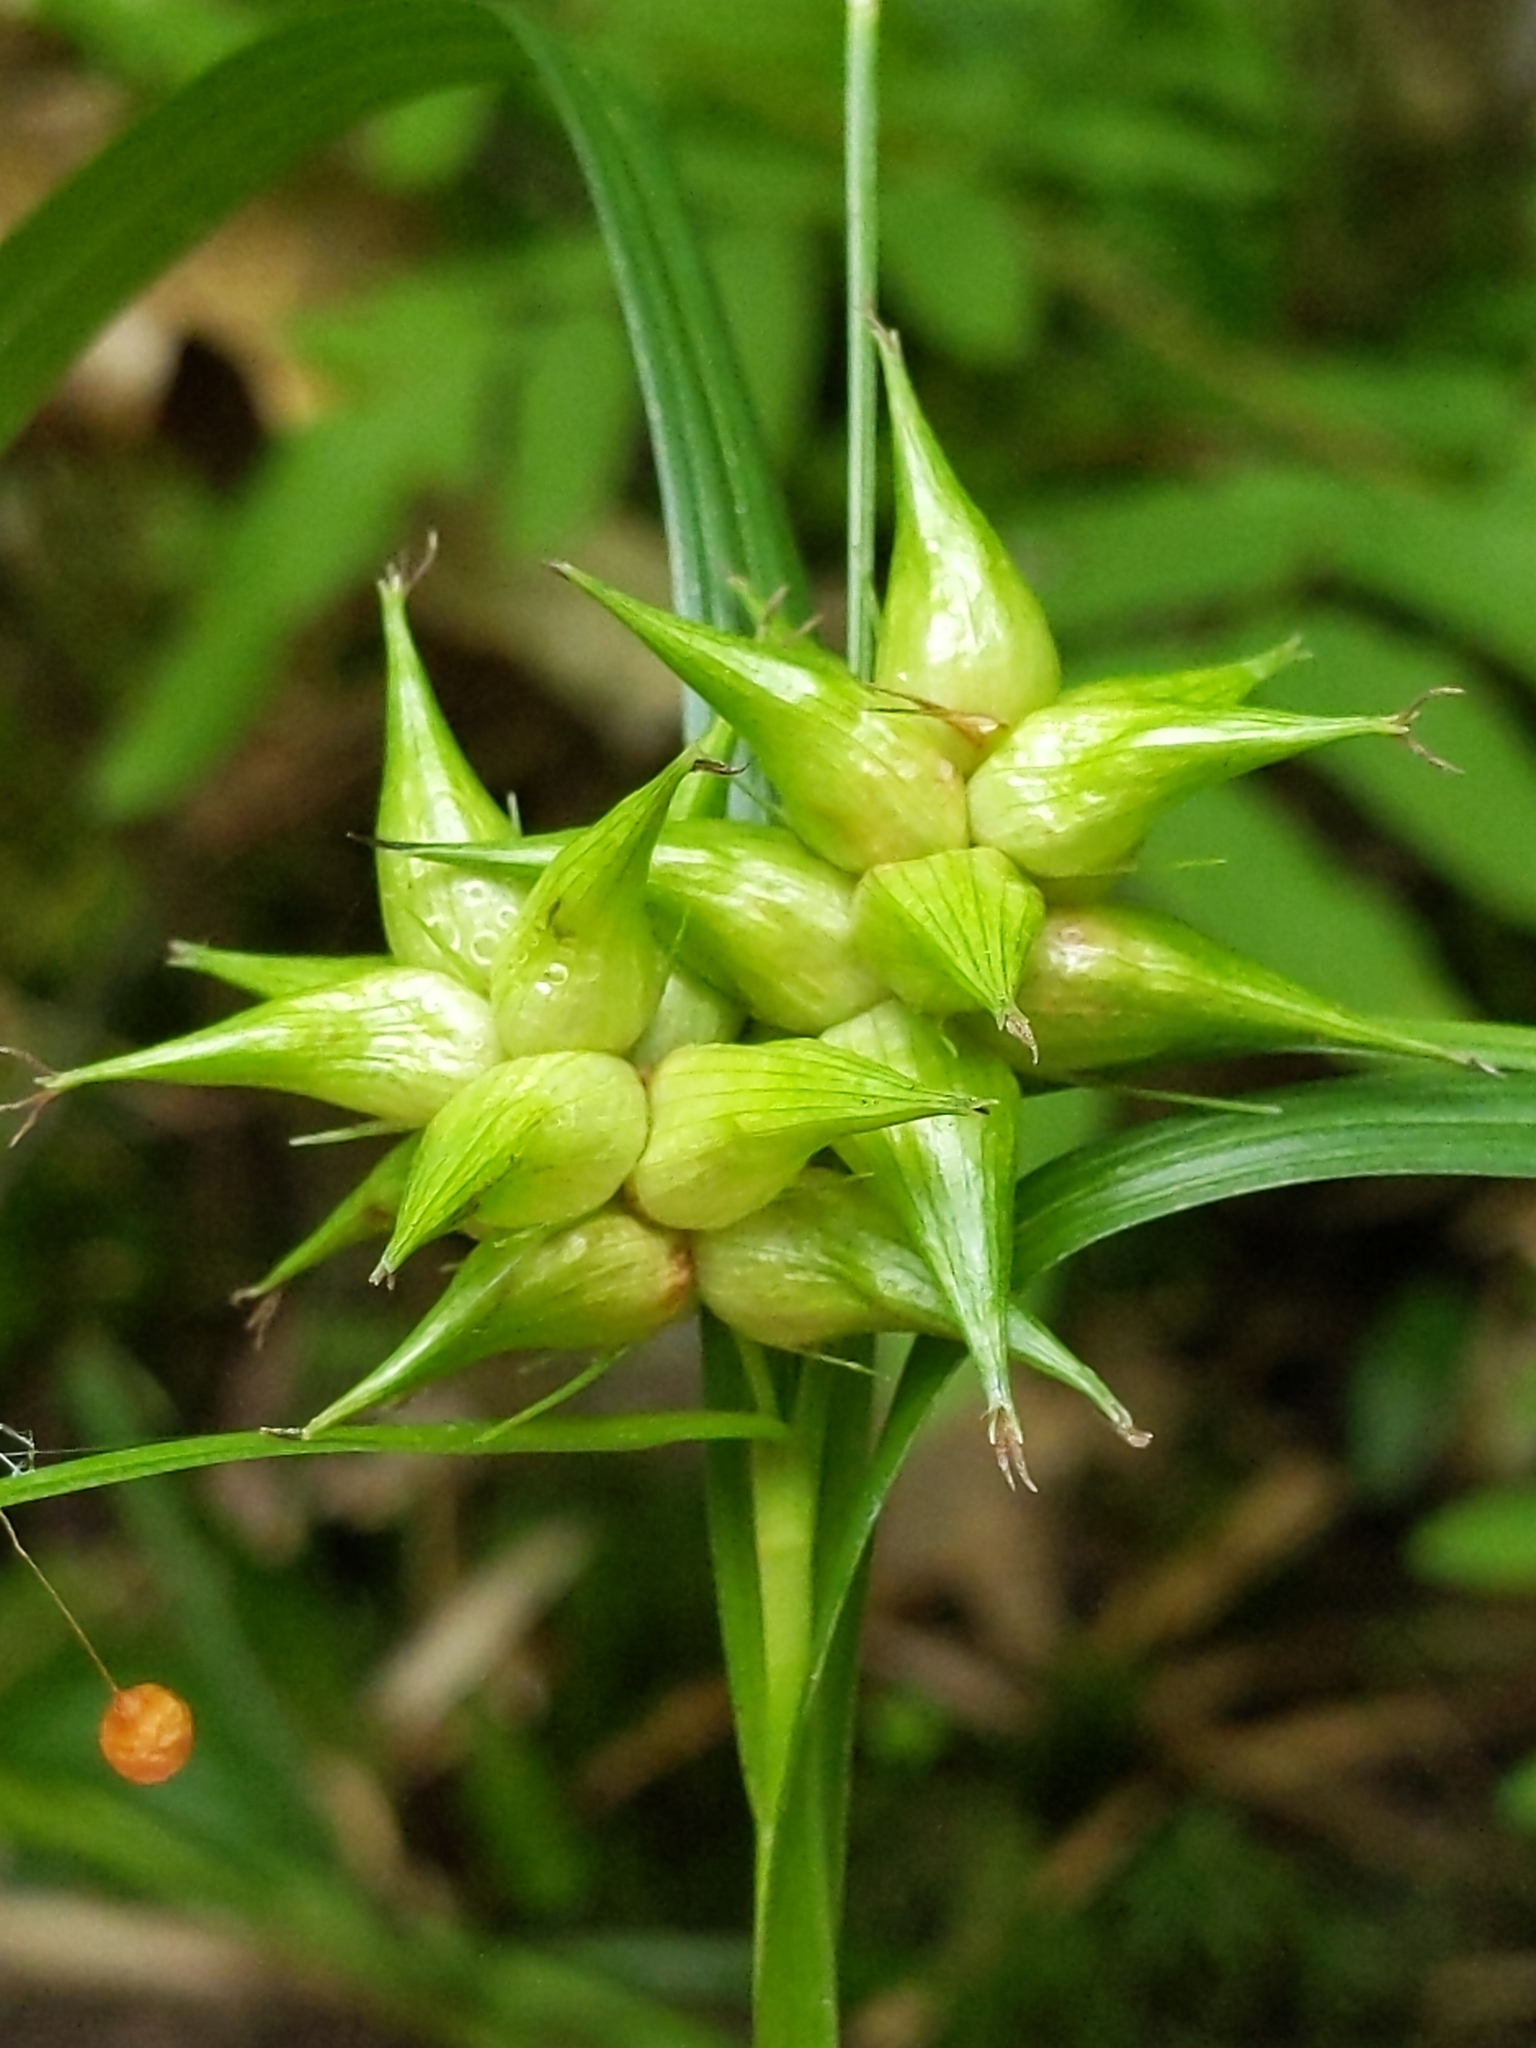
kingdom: Plantae
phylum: Tracheophyta
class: Liliopsida
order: Poales
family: Cyperaceae
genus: Carex
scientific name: Carex intumescens
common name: Greater bladder sedge
